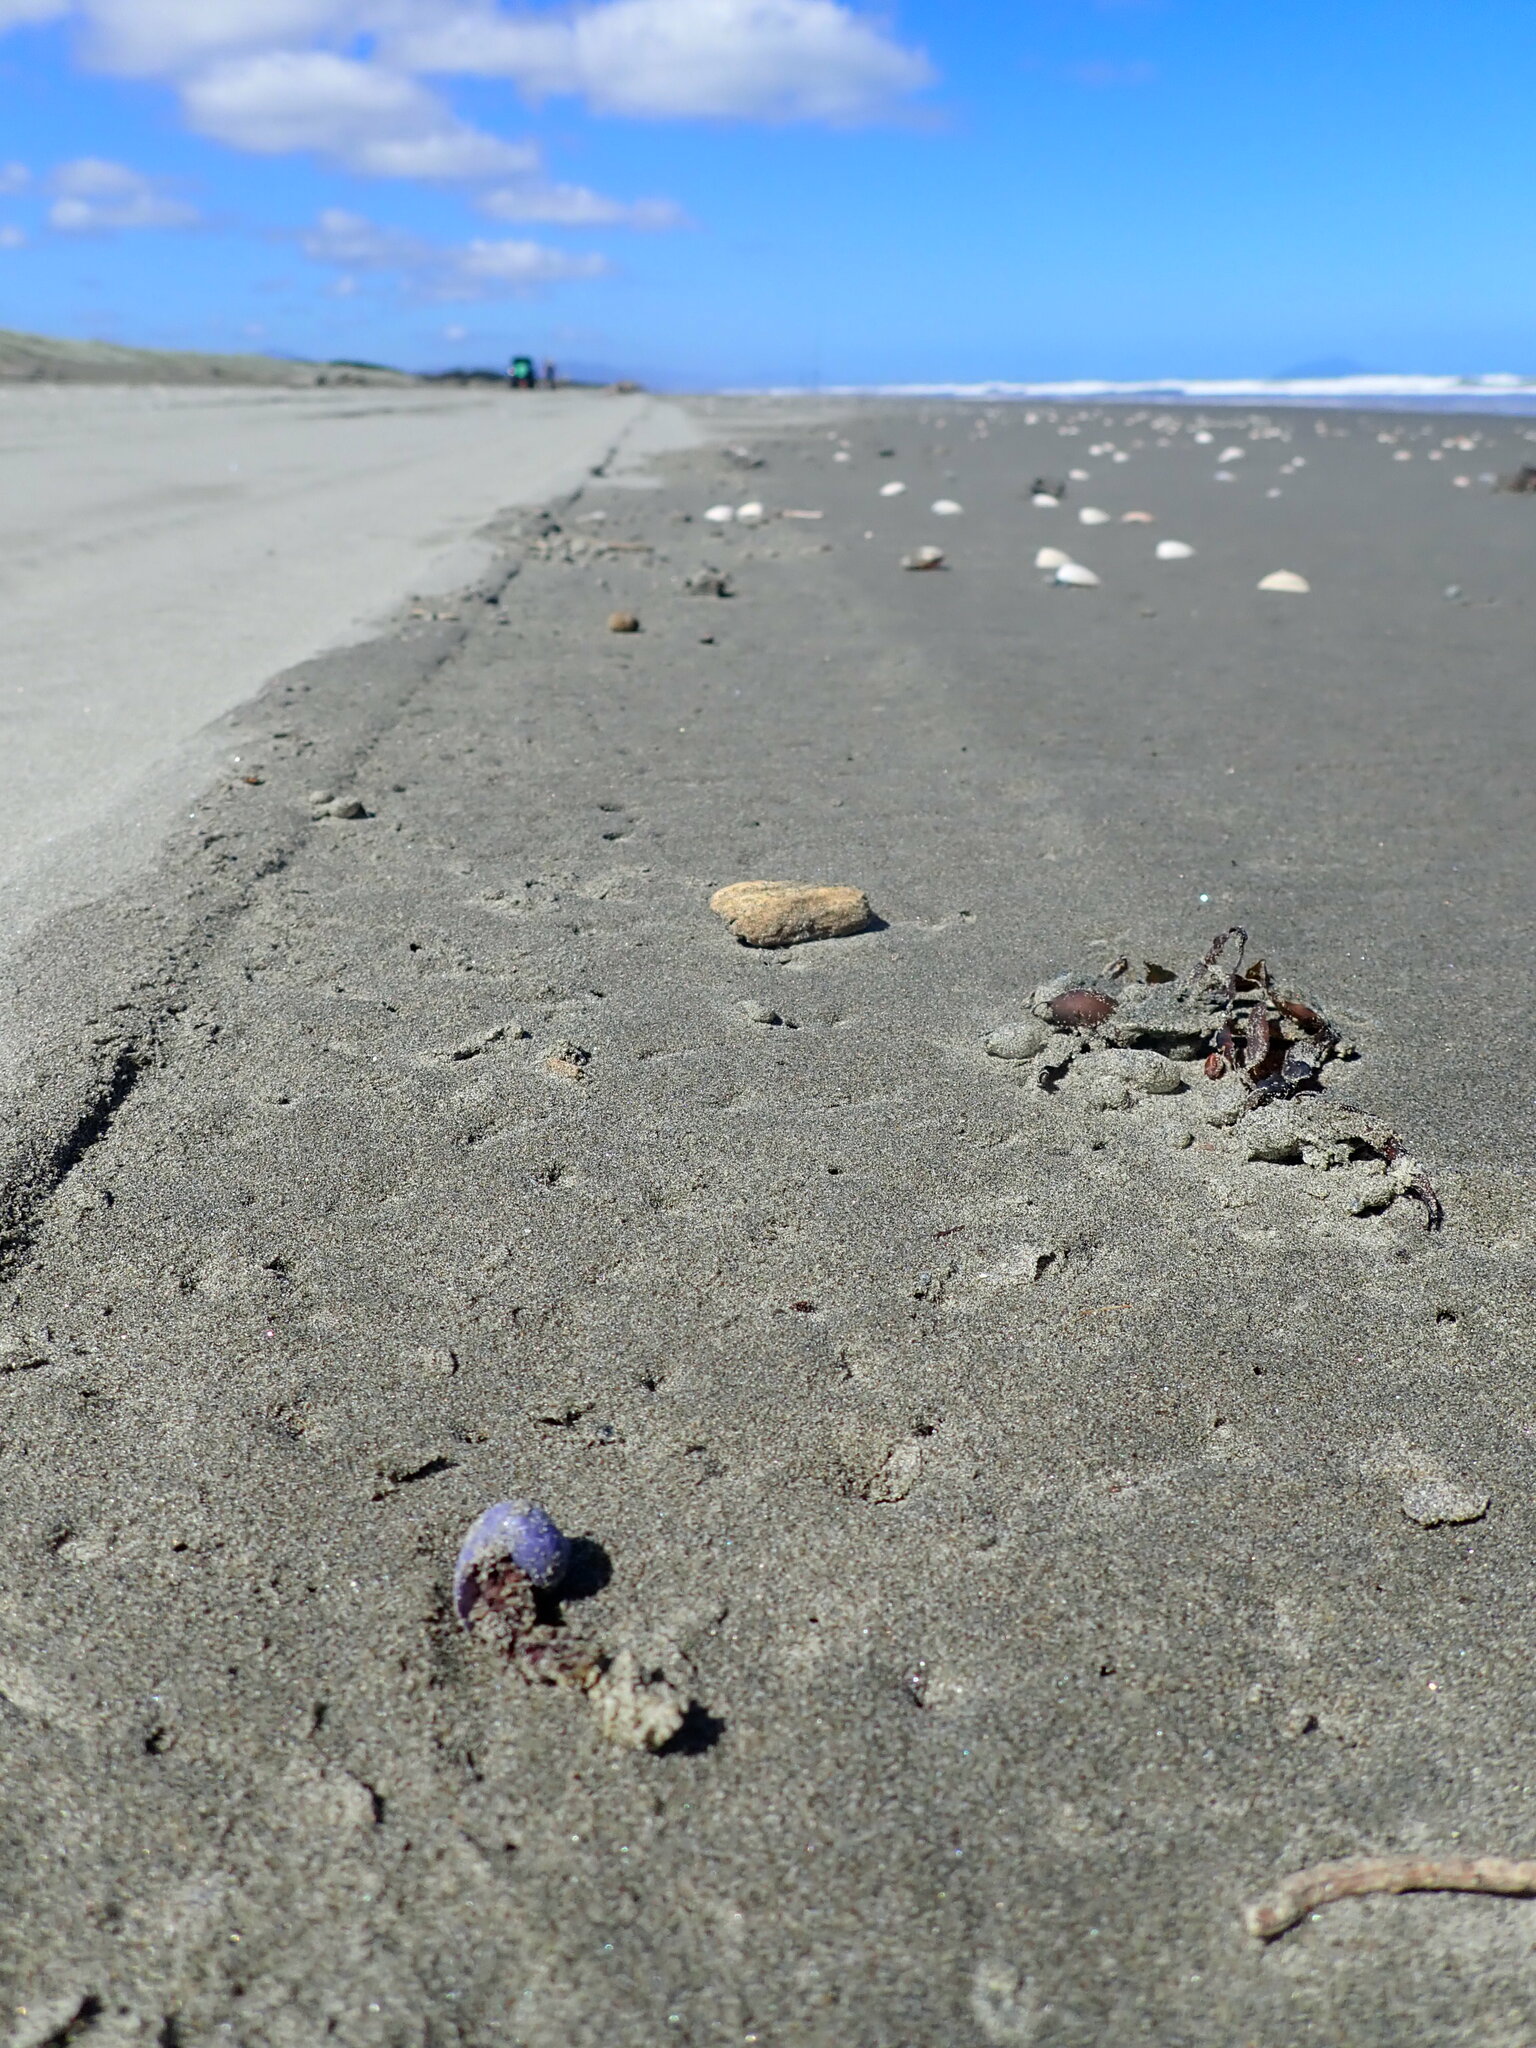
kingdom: Animalia
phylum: Mollusca
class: Gastropoda
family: Epitoniidae
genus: Janthina
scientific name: Janthina exigua
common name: Dwarf janthina
